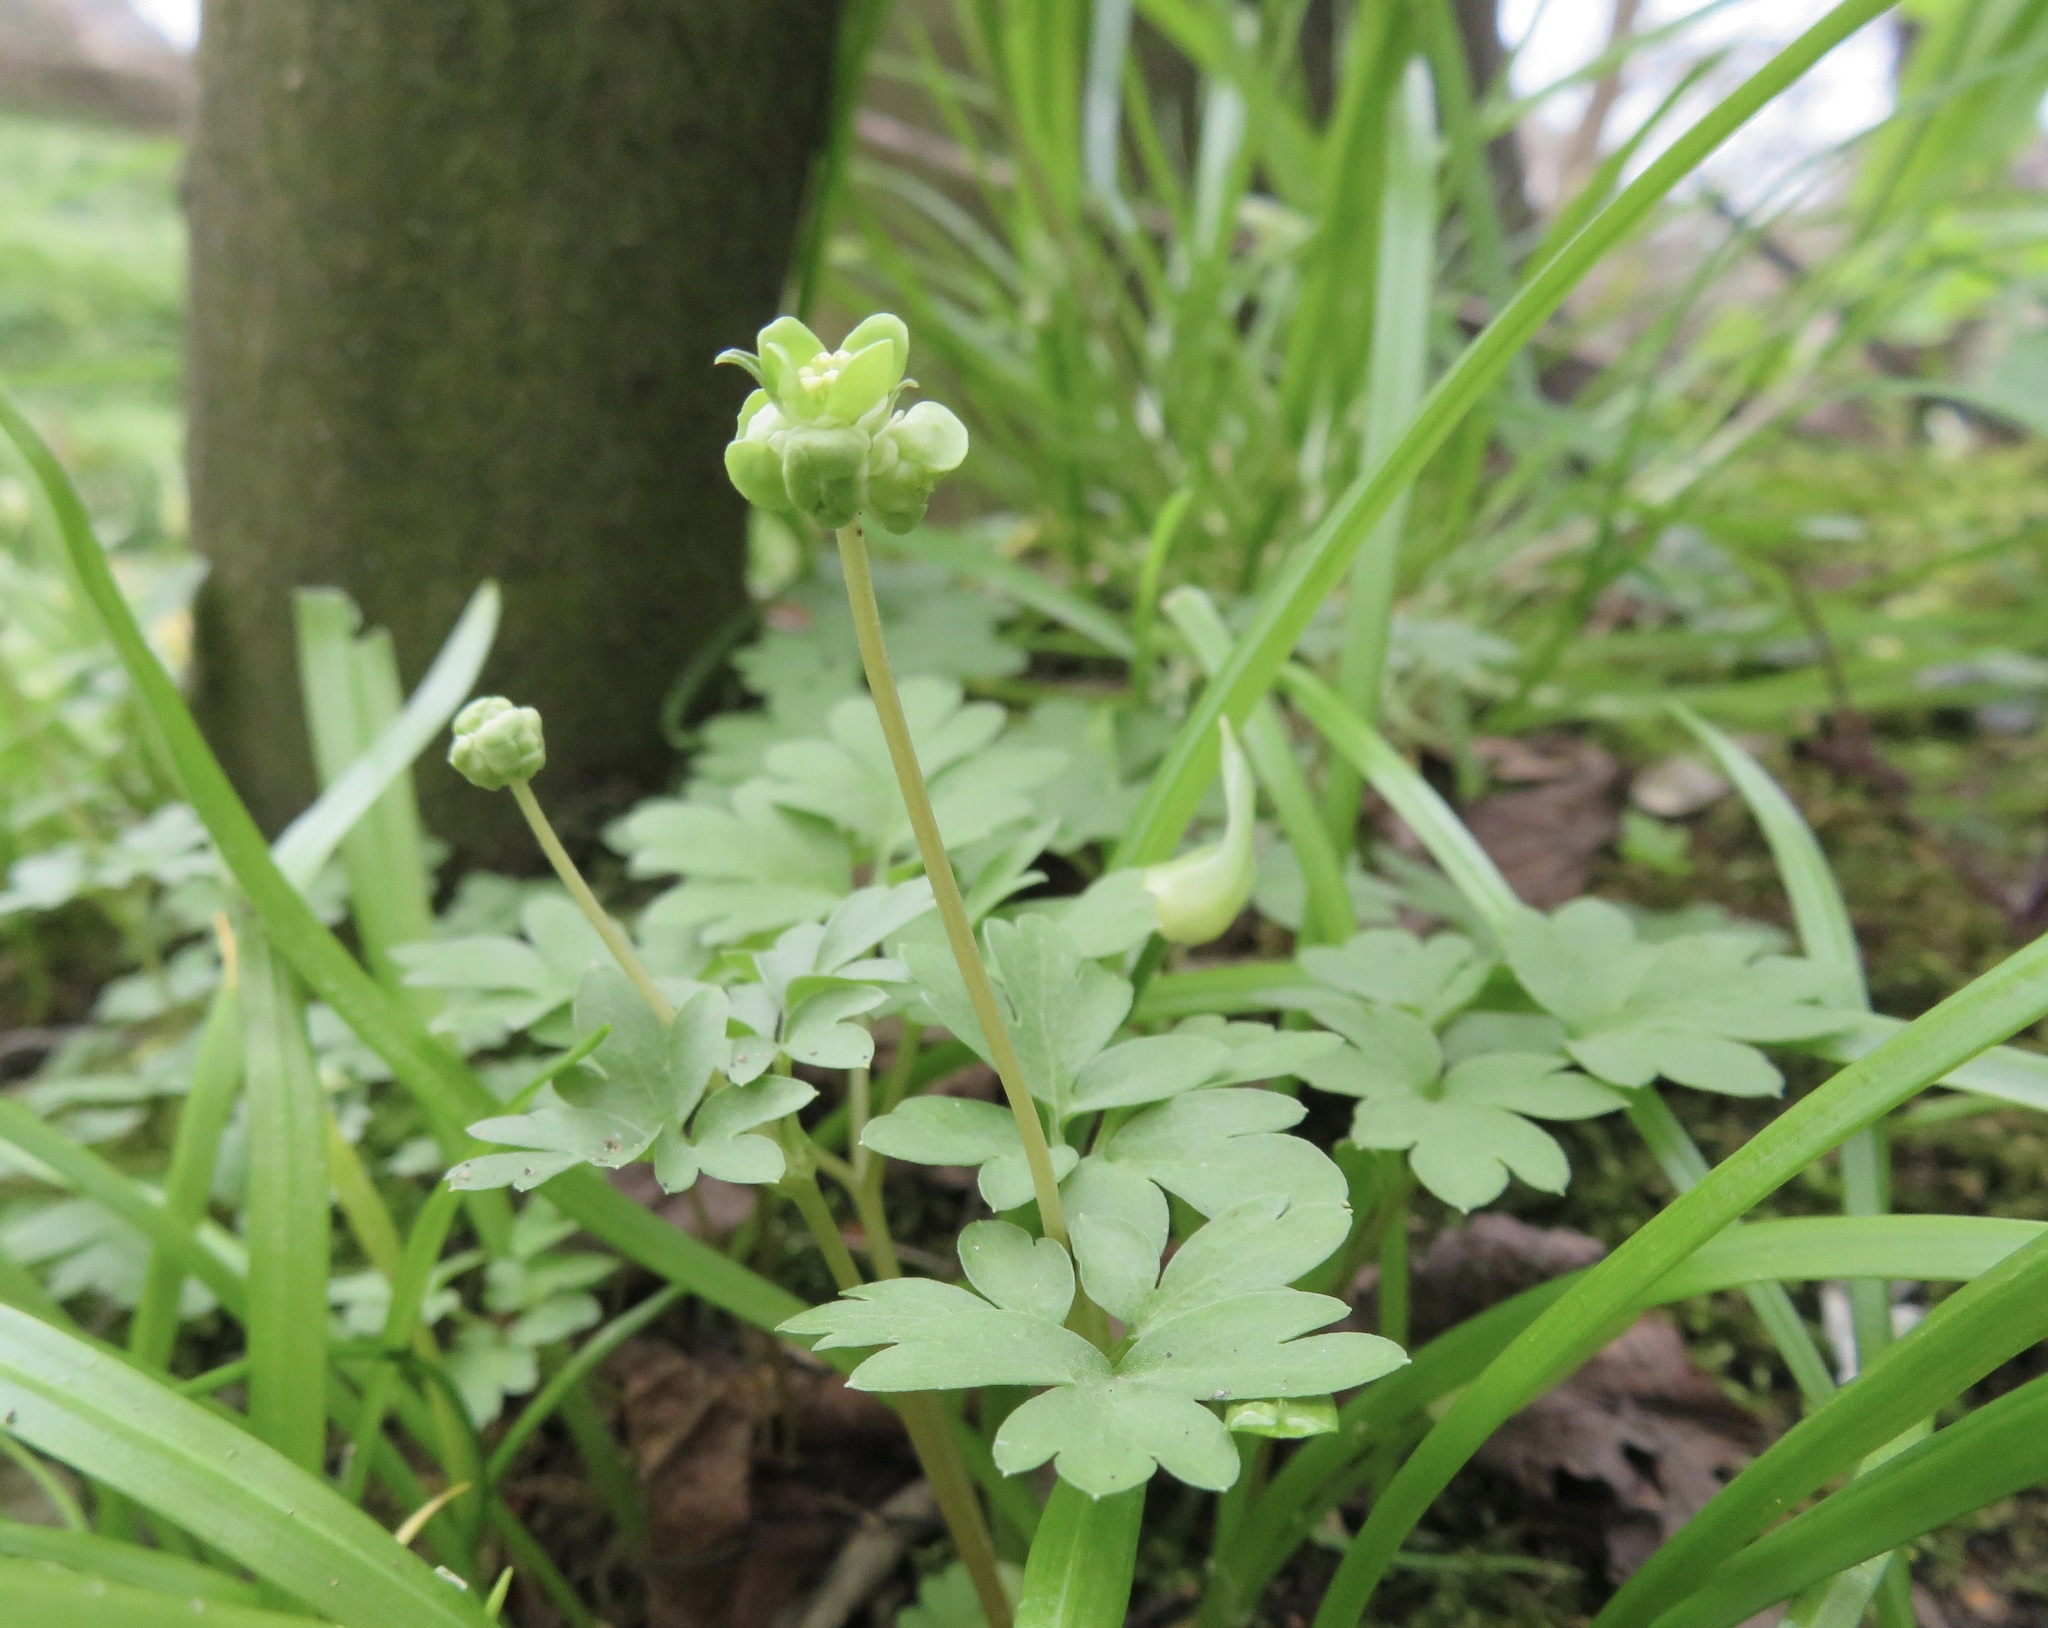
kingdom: Plantae
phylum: Tracheophyta
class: Magnoliopsida
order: Dipsacales
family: Viburnaceae
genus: Adoxa
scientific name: Adoxa moschatellina
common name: Moschatel
